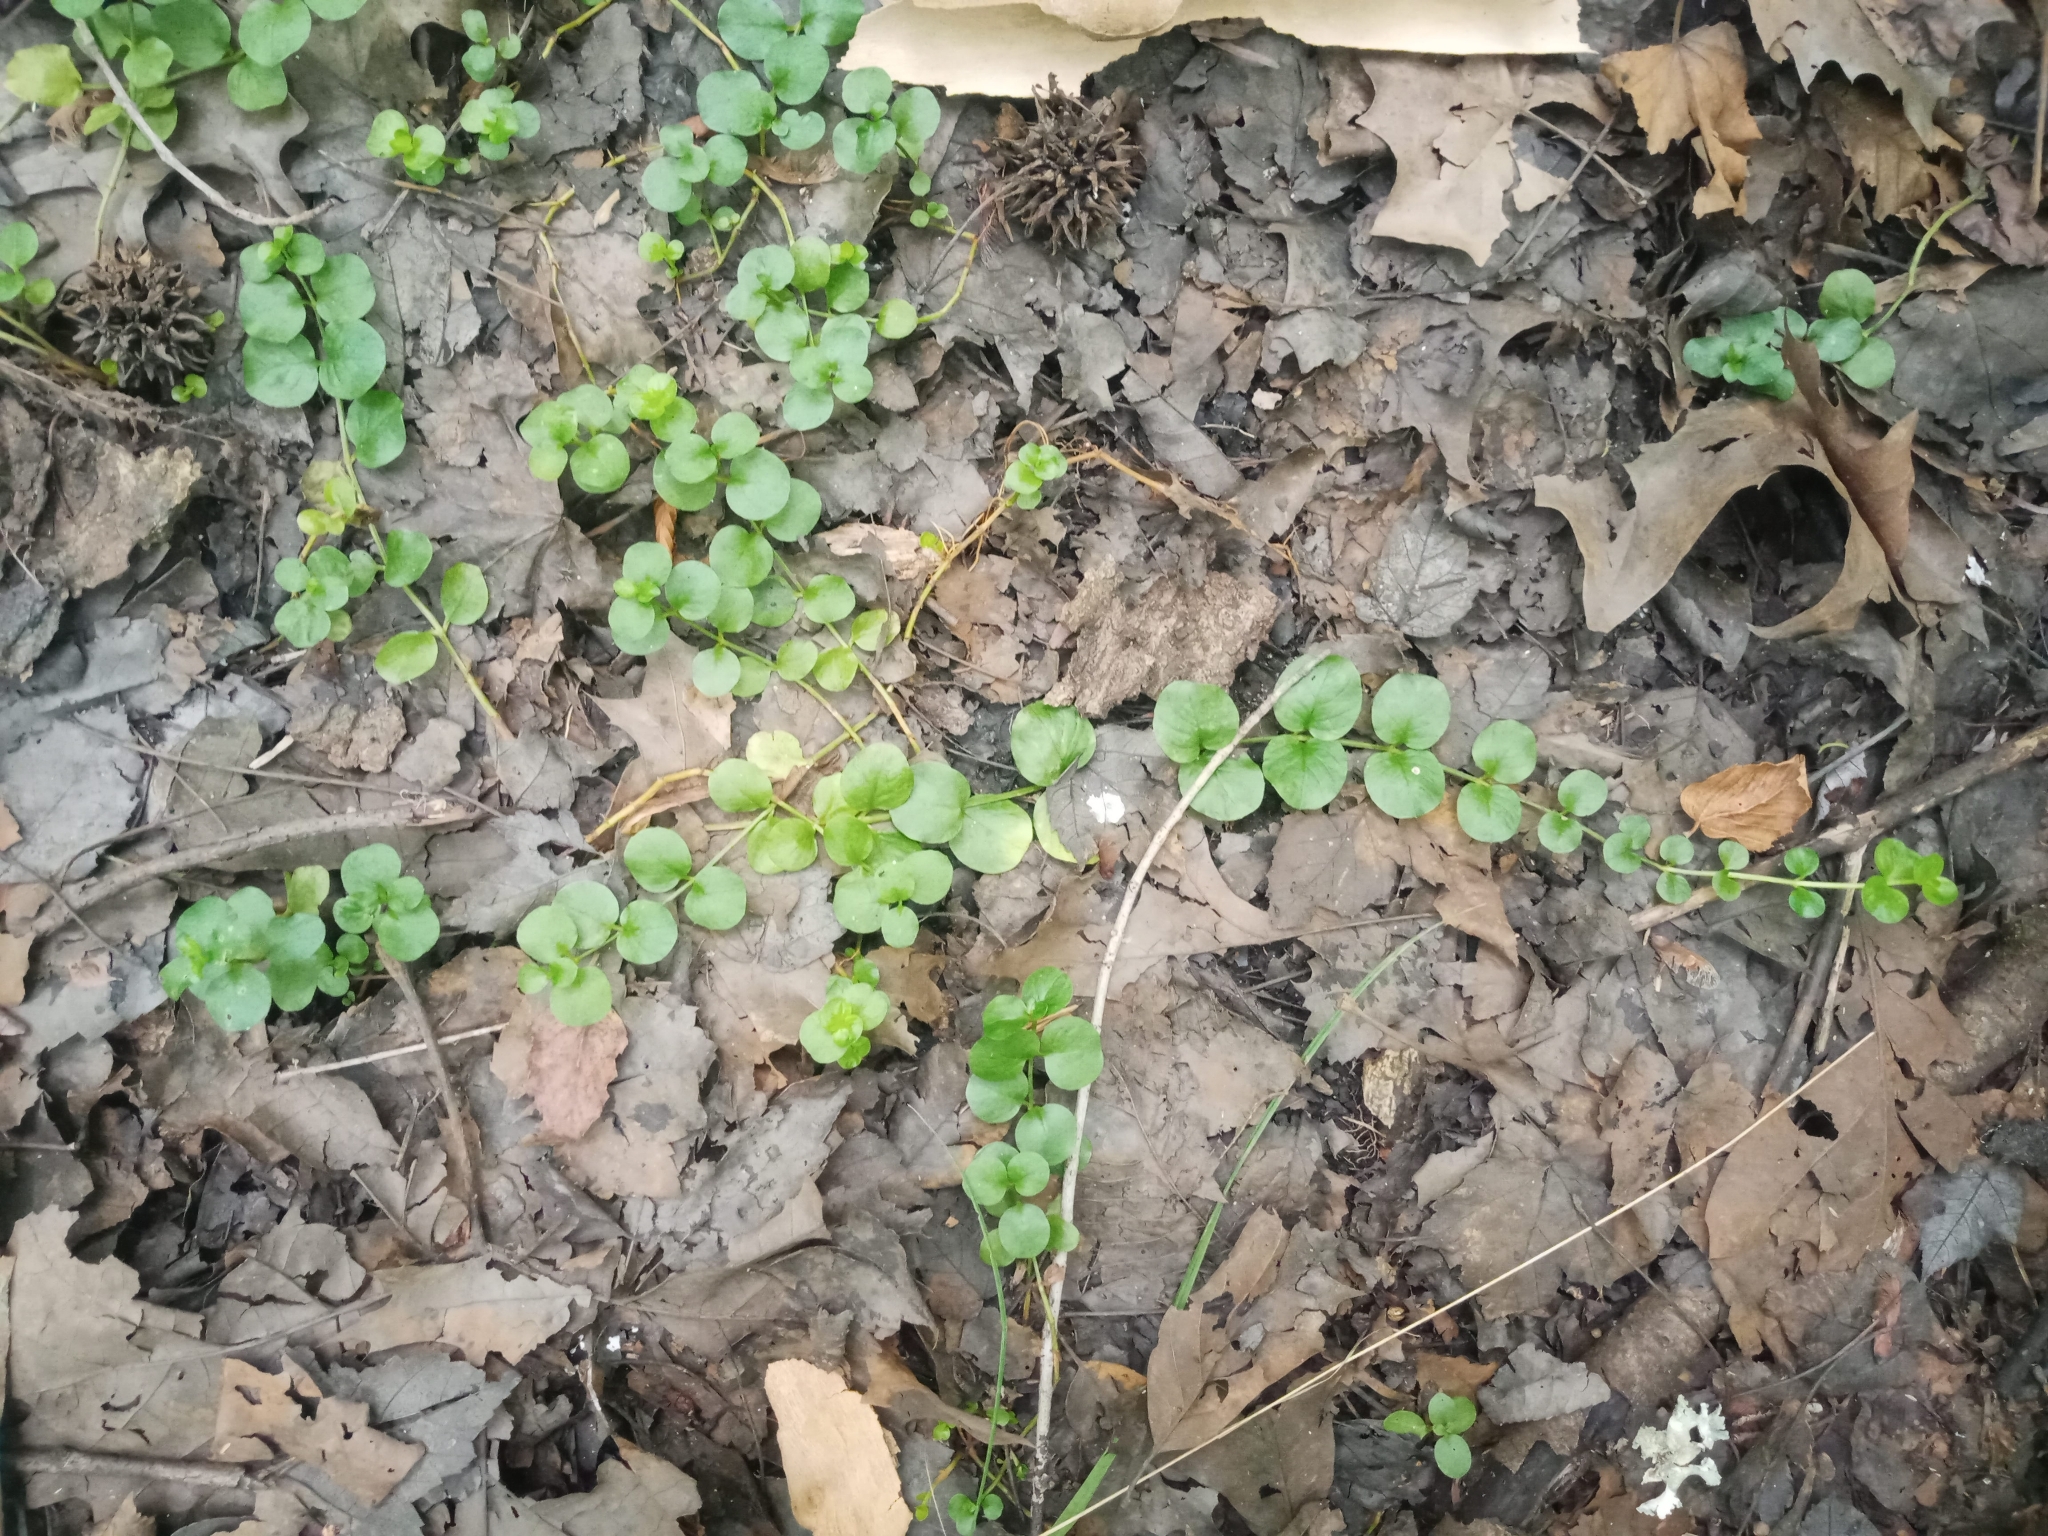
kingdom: Plantae
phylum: Tracheophyta
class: Magnoliopsida
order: Ericales
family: Primulaceae
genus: Lysimachia
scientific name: Lysimachia nummularia
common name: Moneywort
